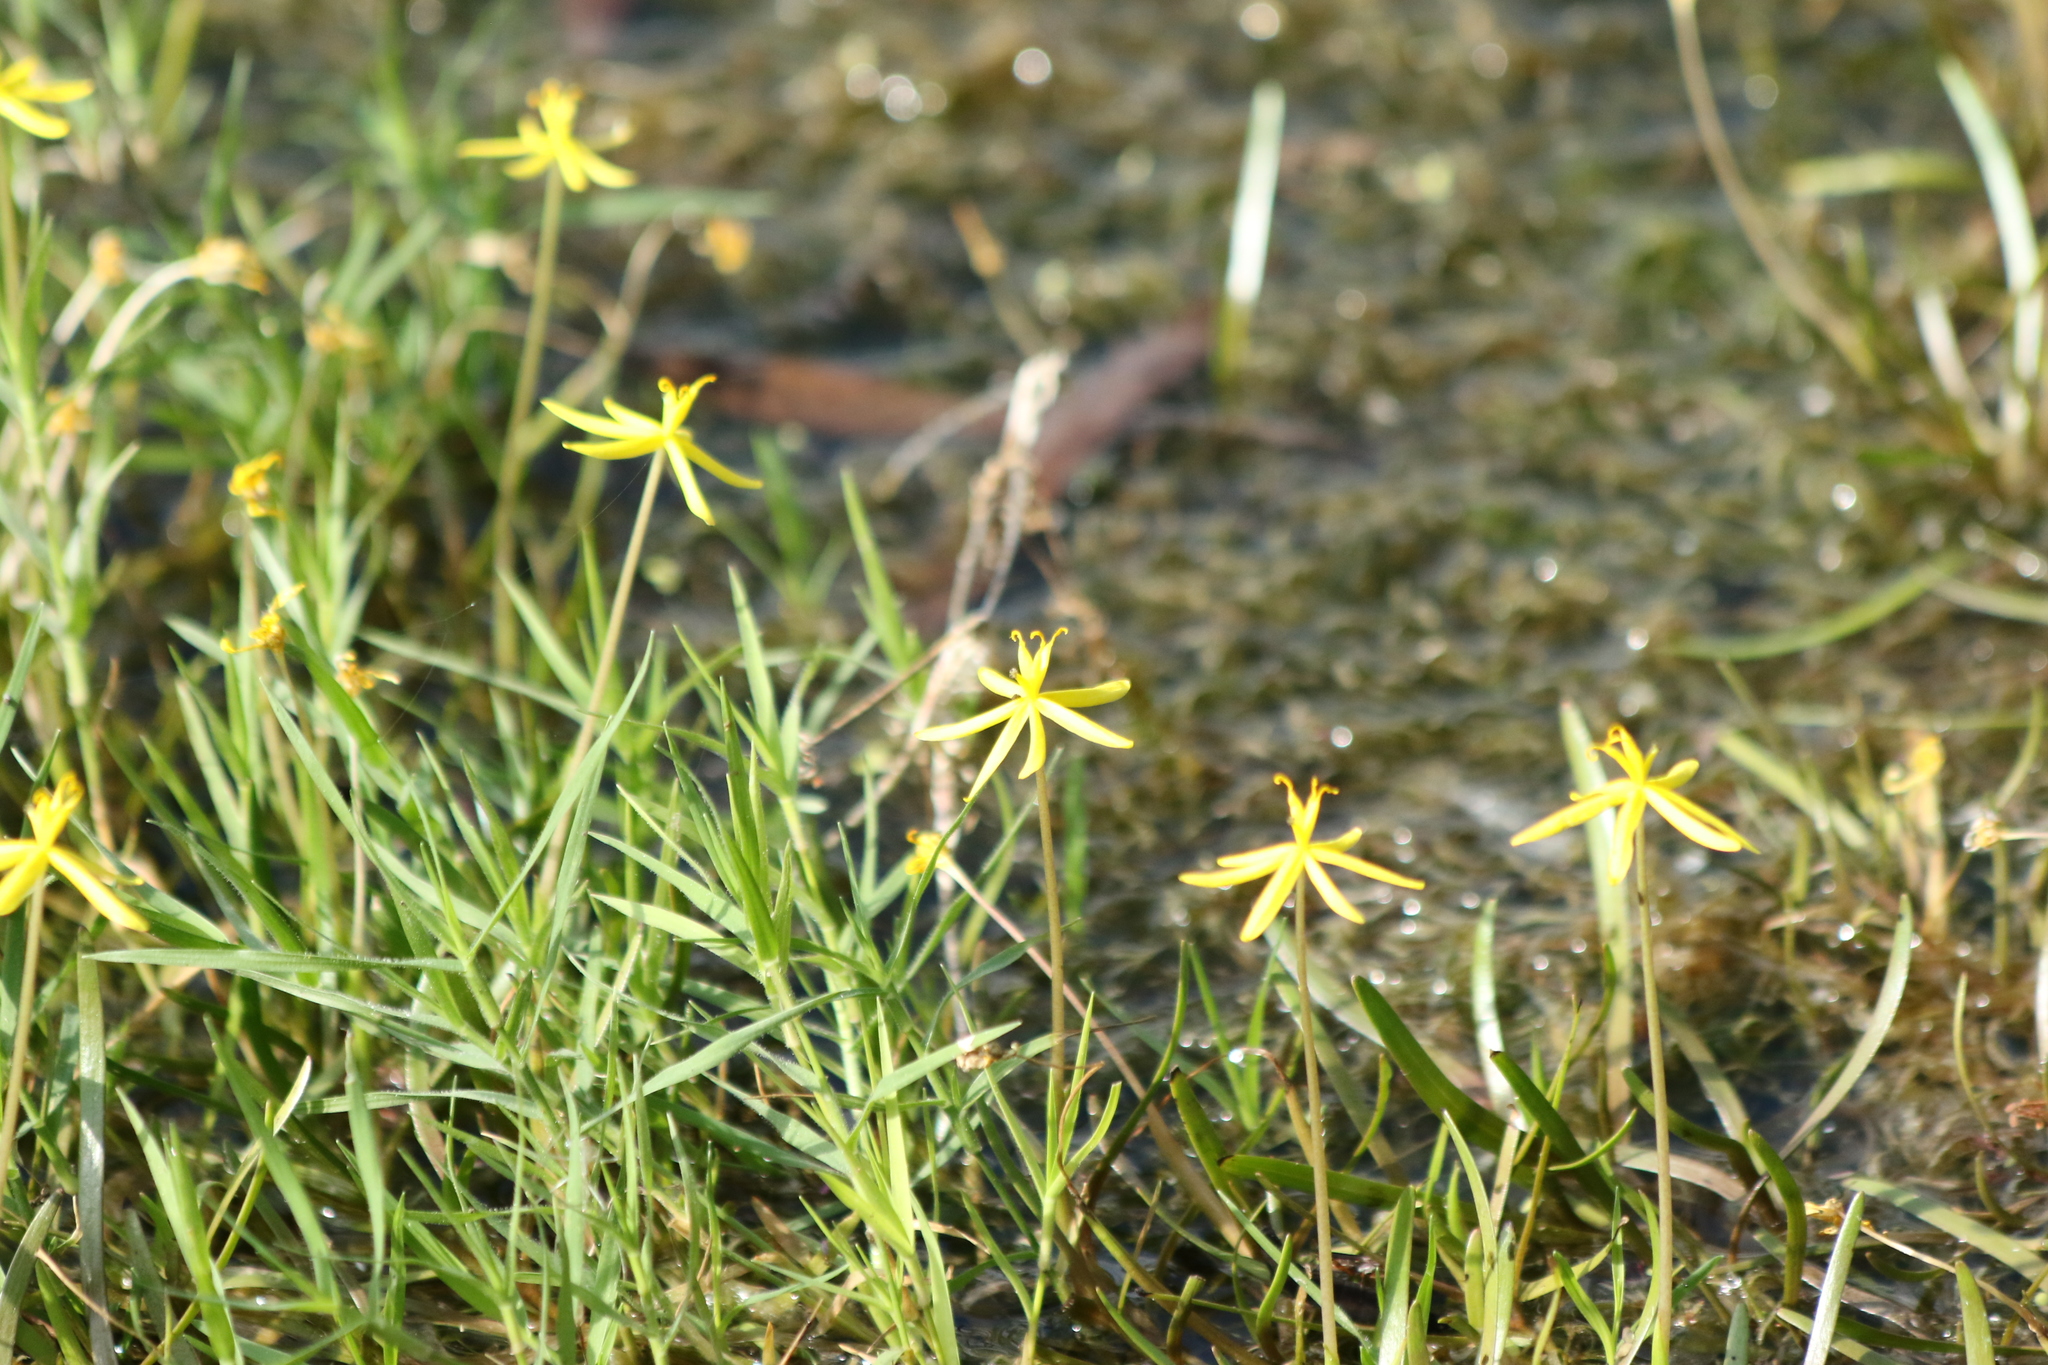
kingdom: Plantae
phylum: Tracheophyta
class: Liliopsida
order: Commelinales
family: Pontederiaceae
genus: Heteranthera
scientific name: Heteranthera dubia
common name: Grass-leaved mud plantain
